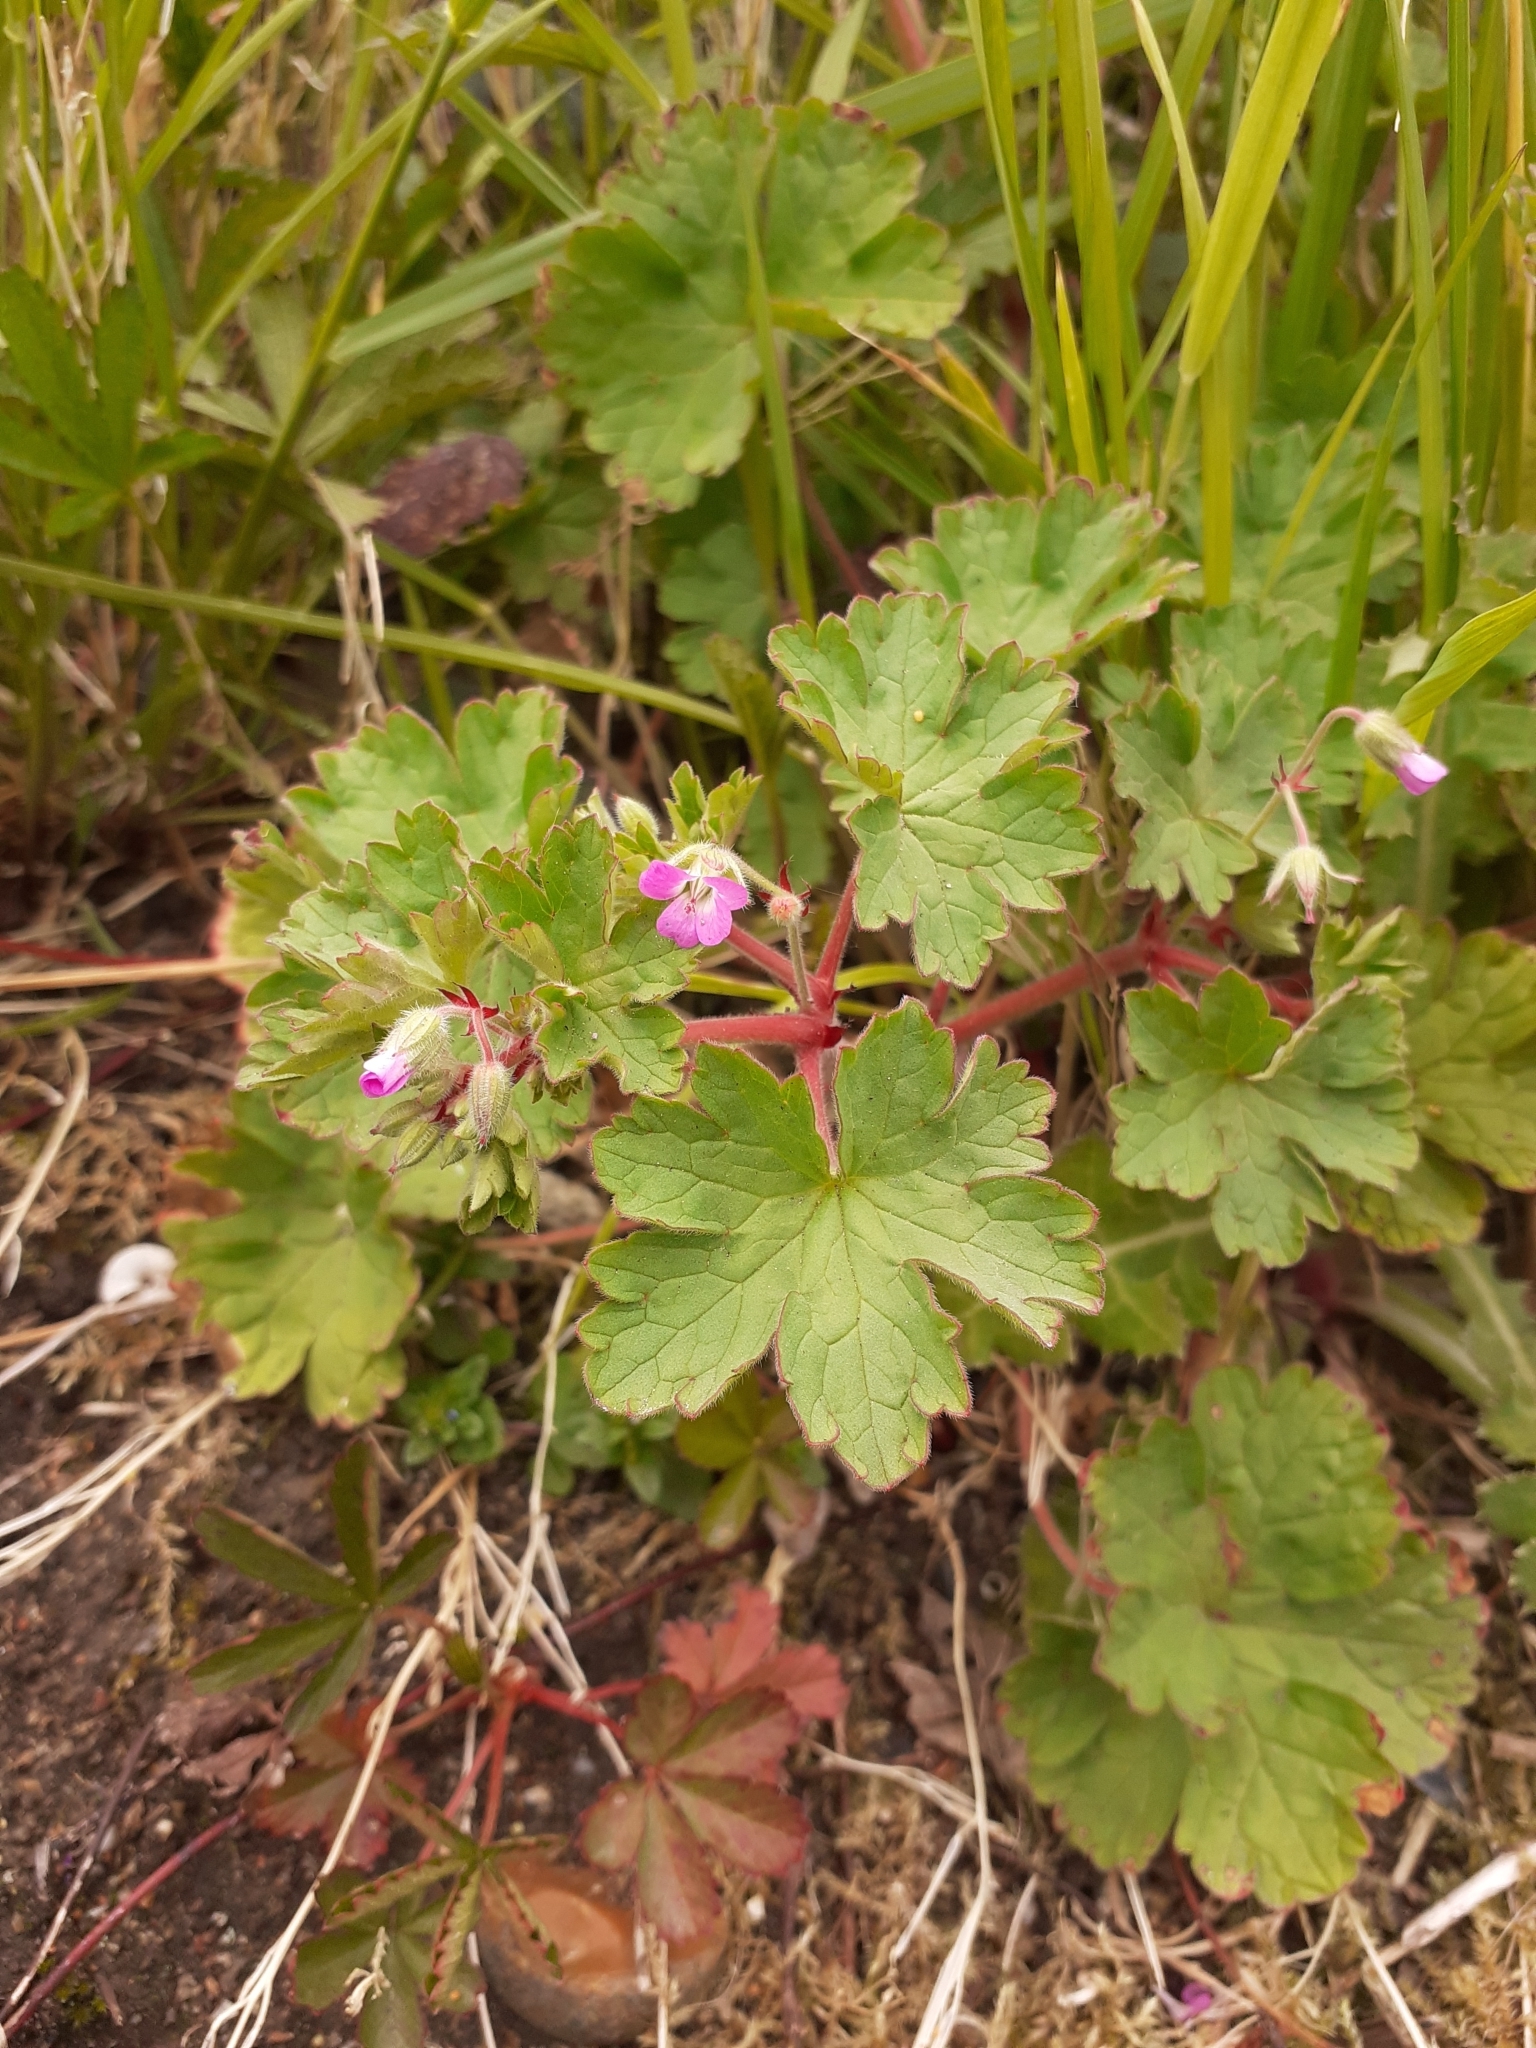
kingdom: Plantae
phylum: Tracheophyta
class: Magnoliopsida
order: Geraniales
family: Geraniaceae
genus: Geranium
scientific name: Geranium rotundifolium
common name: Round-leaved crane's-bill
